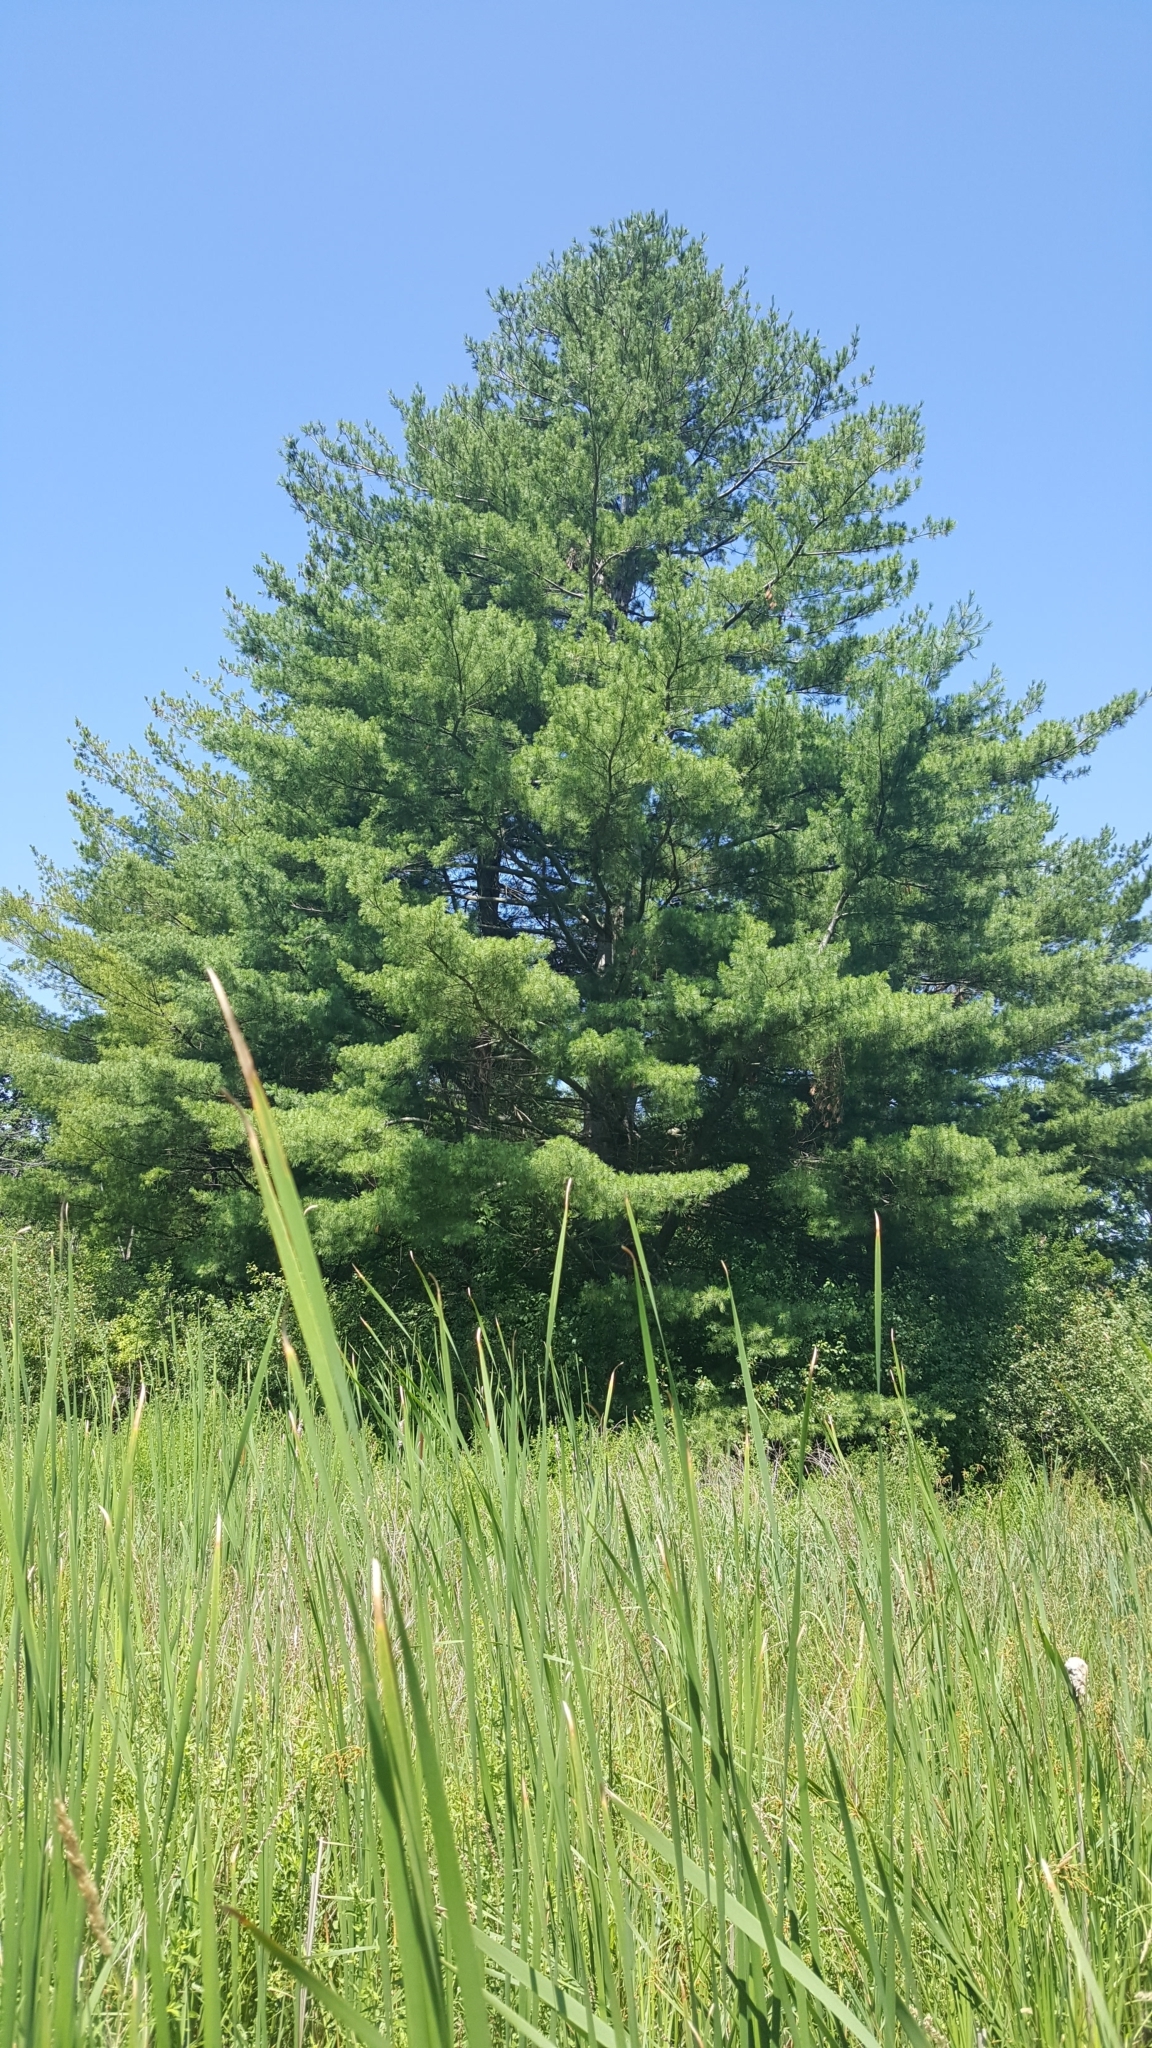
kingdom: Plantae
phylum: Tracheophyta
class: Pinopsida
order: Pinales
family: Pinaceae
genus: Pinus
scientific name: Pinus strobus
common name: Weymouth pine
